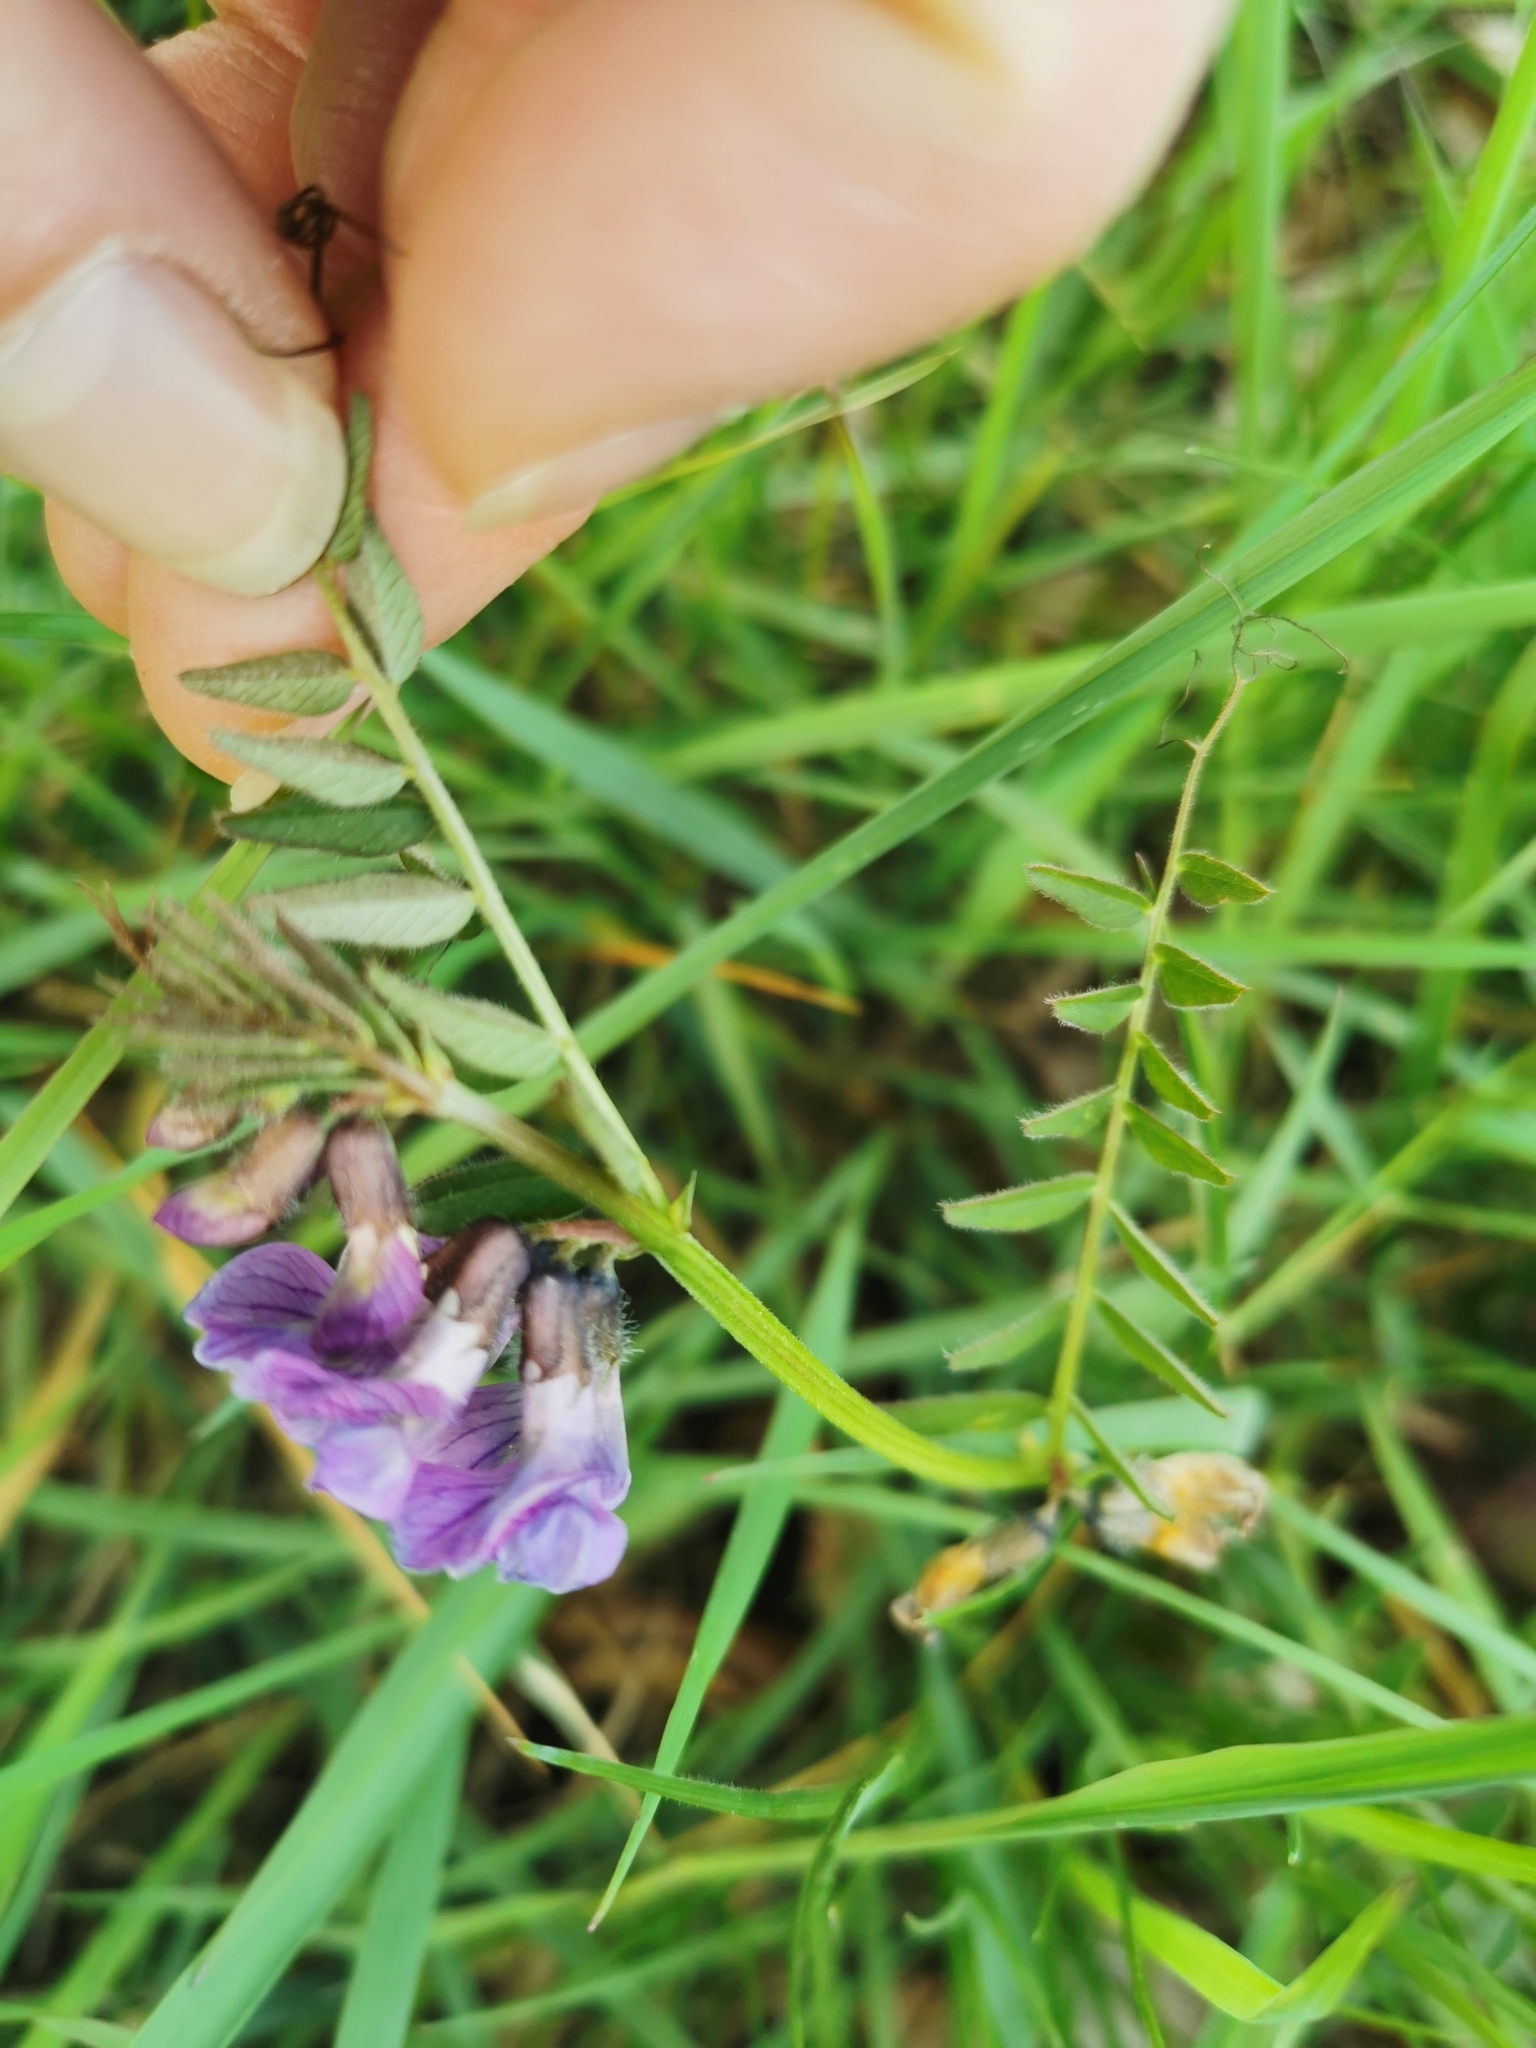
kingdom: Plantae
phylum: Tracheophyta
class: Magnoliopsida
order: Fabales
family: Fabaceae
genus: Vicia
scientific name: Vicia sepium
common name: Bush vetch
